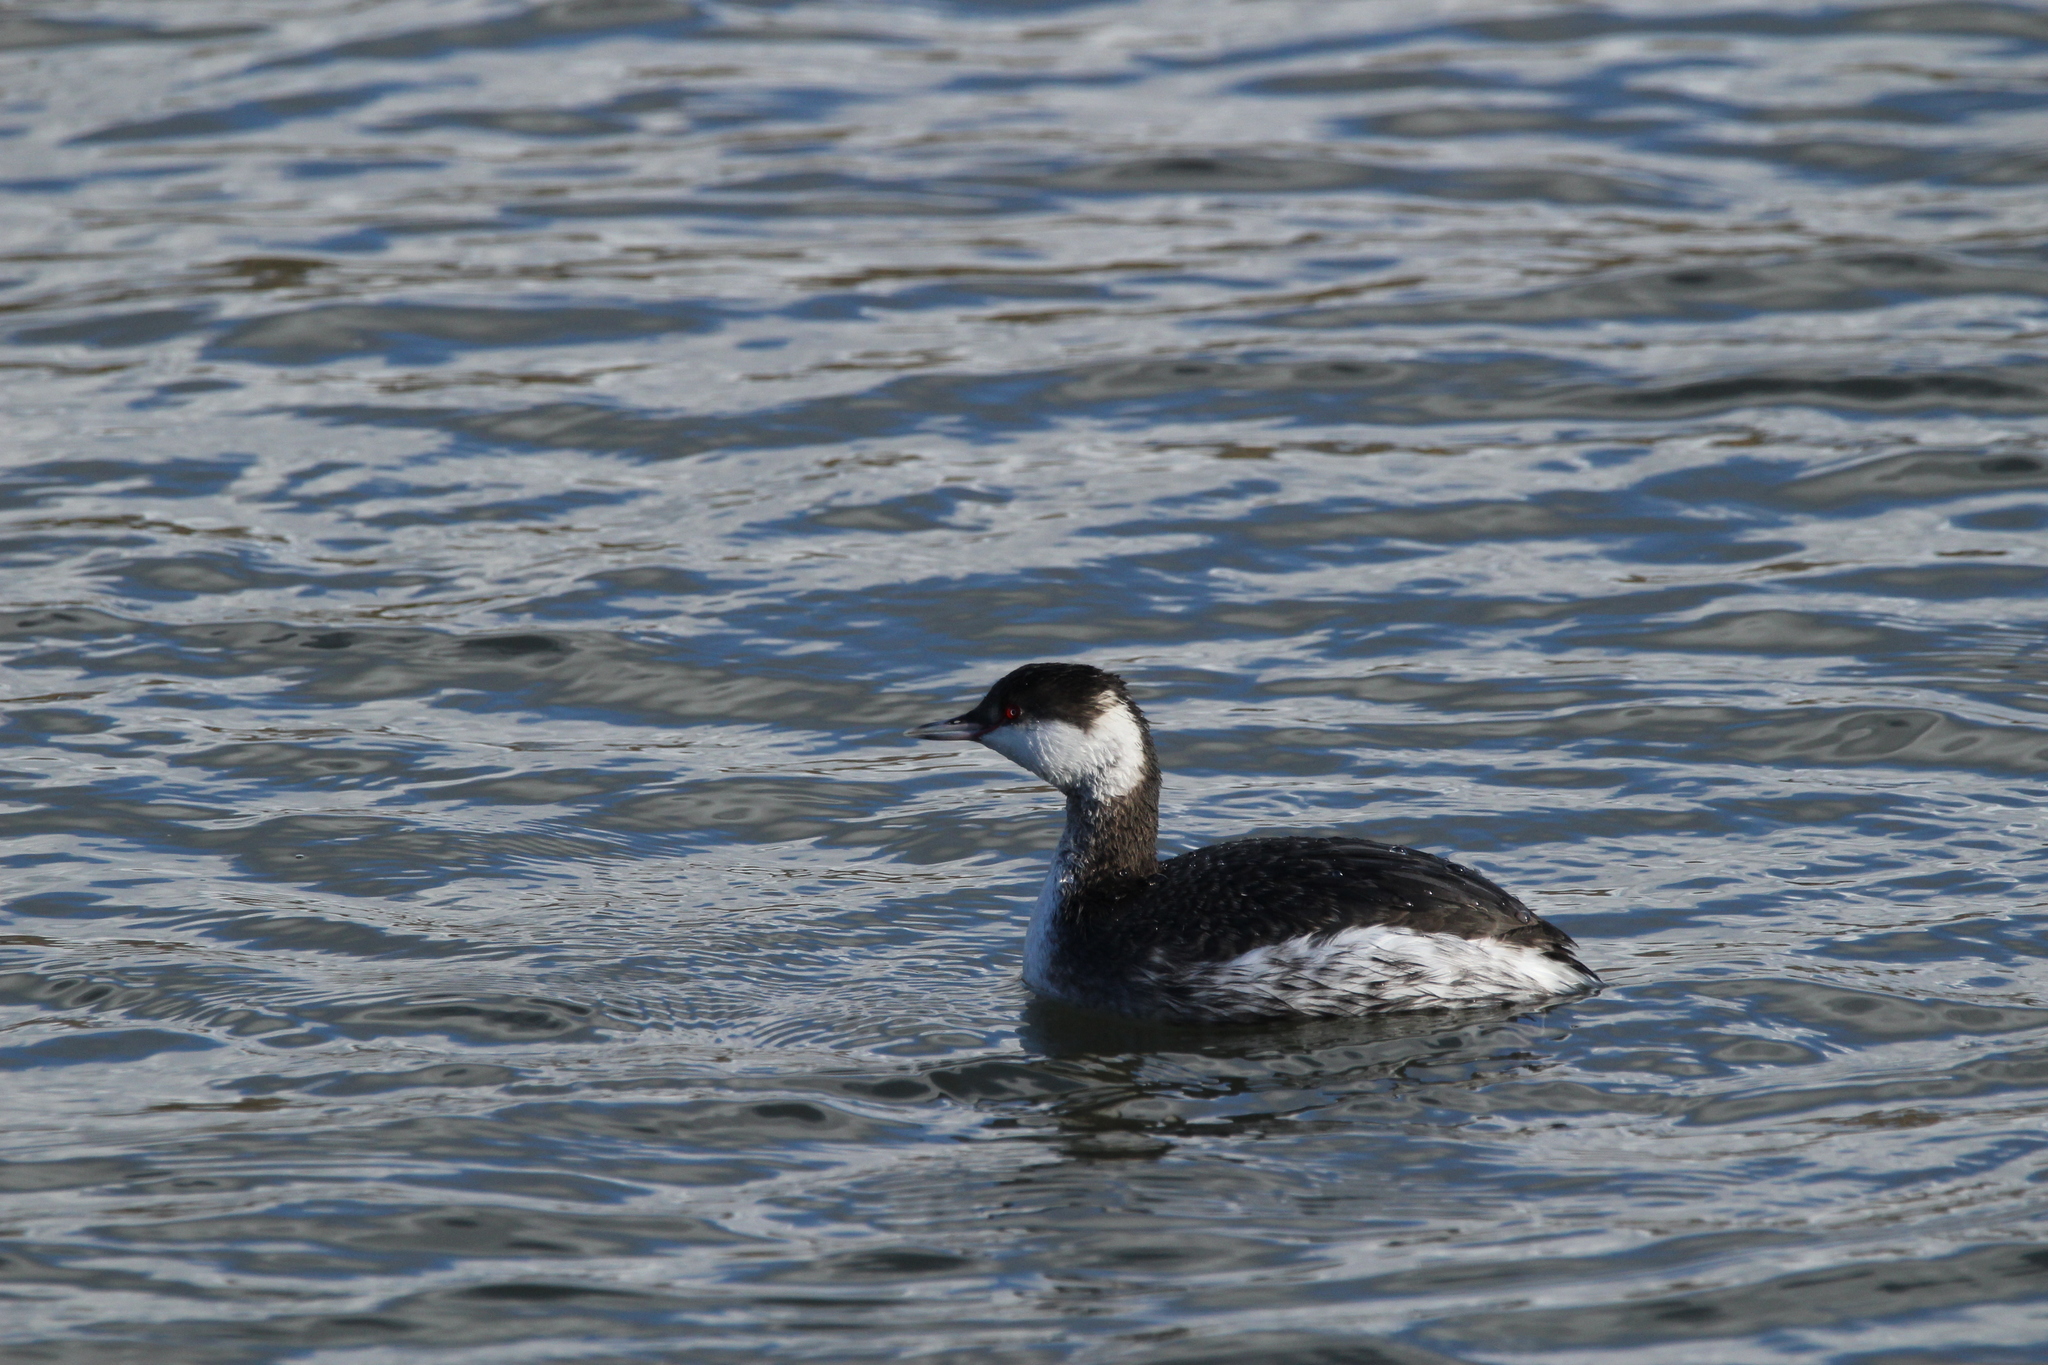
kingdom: Animalia
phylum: Chordata
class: Aves
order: Podicipediformes
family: Podicipedidae
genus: Podiceps
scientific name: Podiceps auritus
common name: Horned grebe
